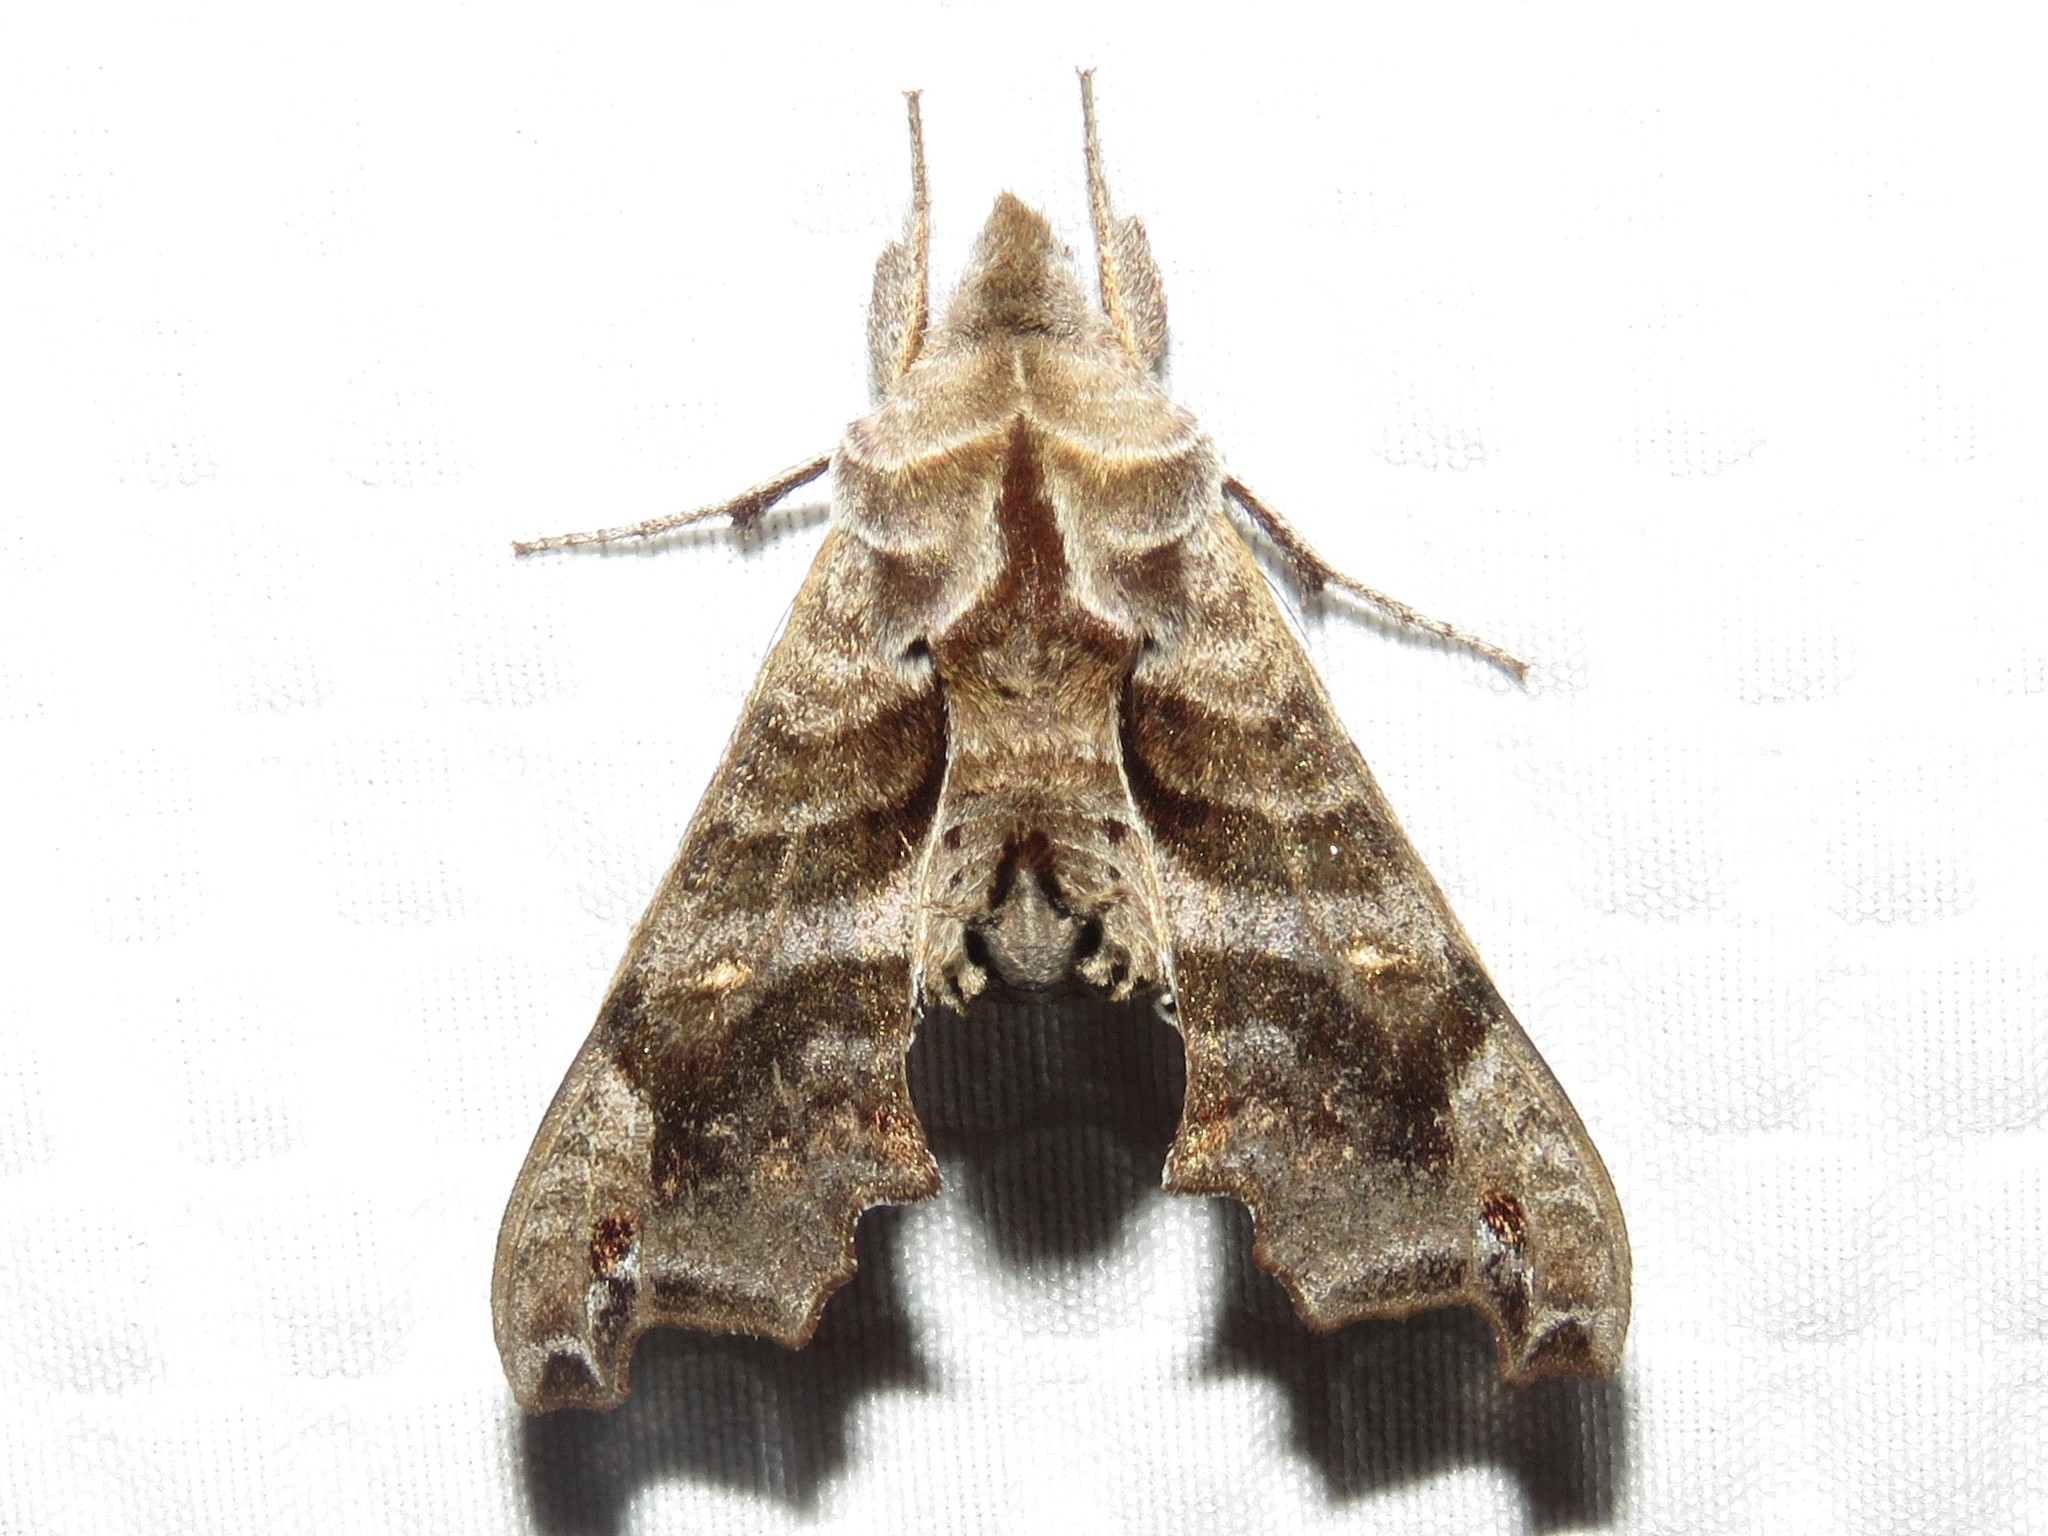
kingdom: Animalia
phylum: Arthropoda
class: Insecta
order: Lepidoptera
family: Sphingidae
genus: Deidamia
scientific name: Deidamia inscriptum
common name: Lettered sphinx
